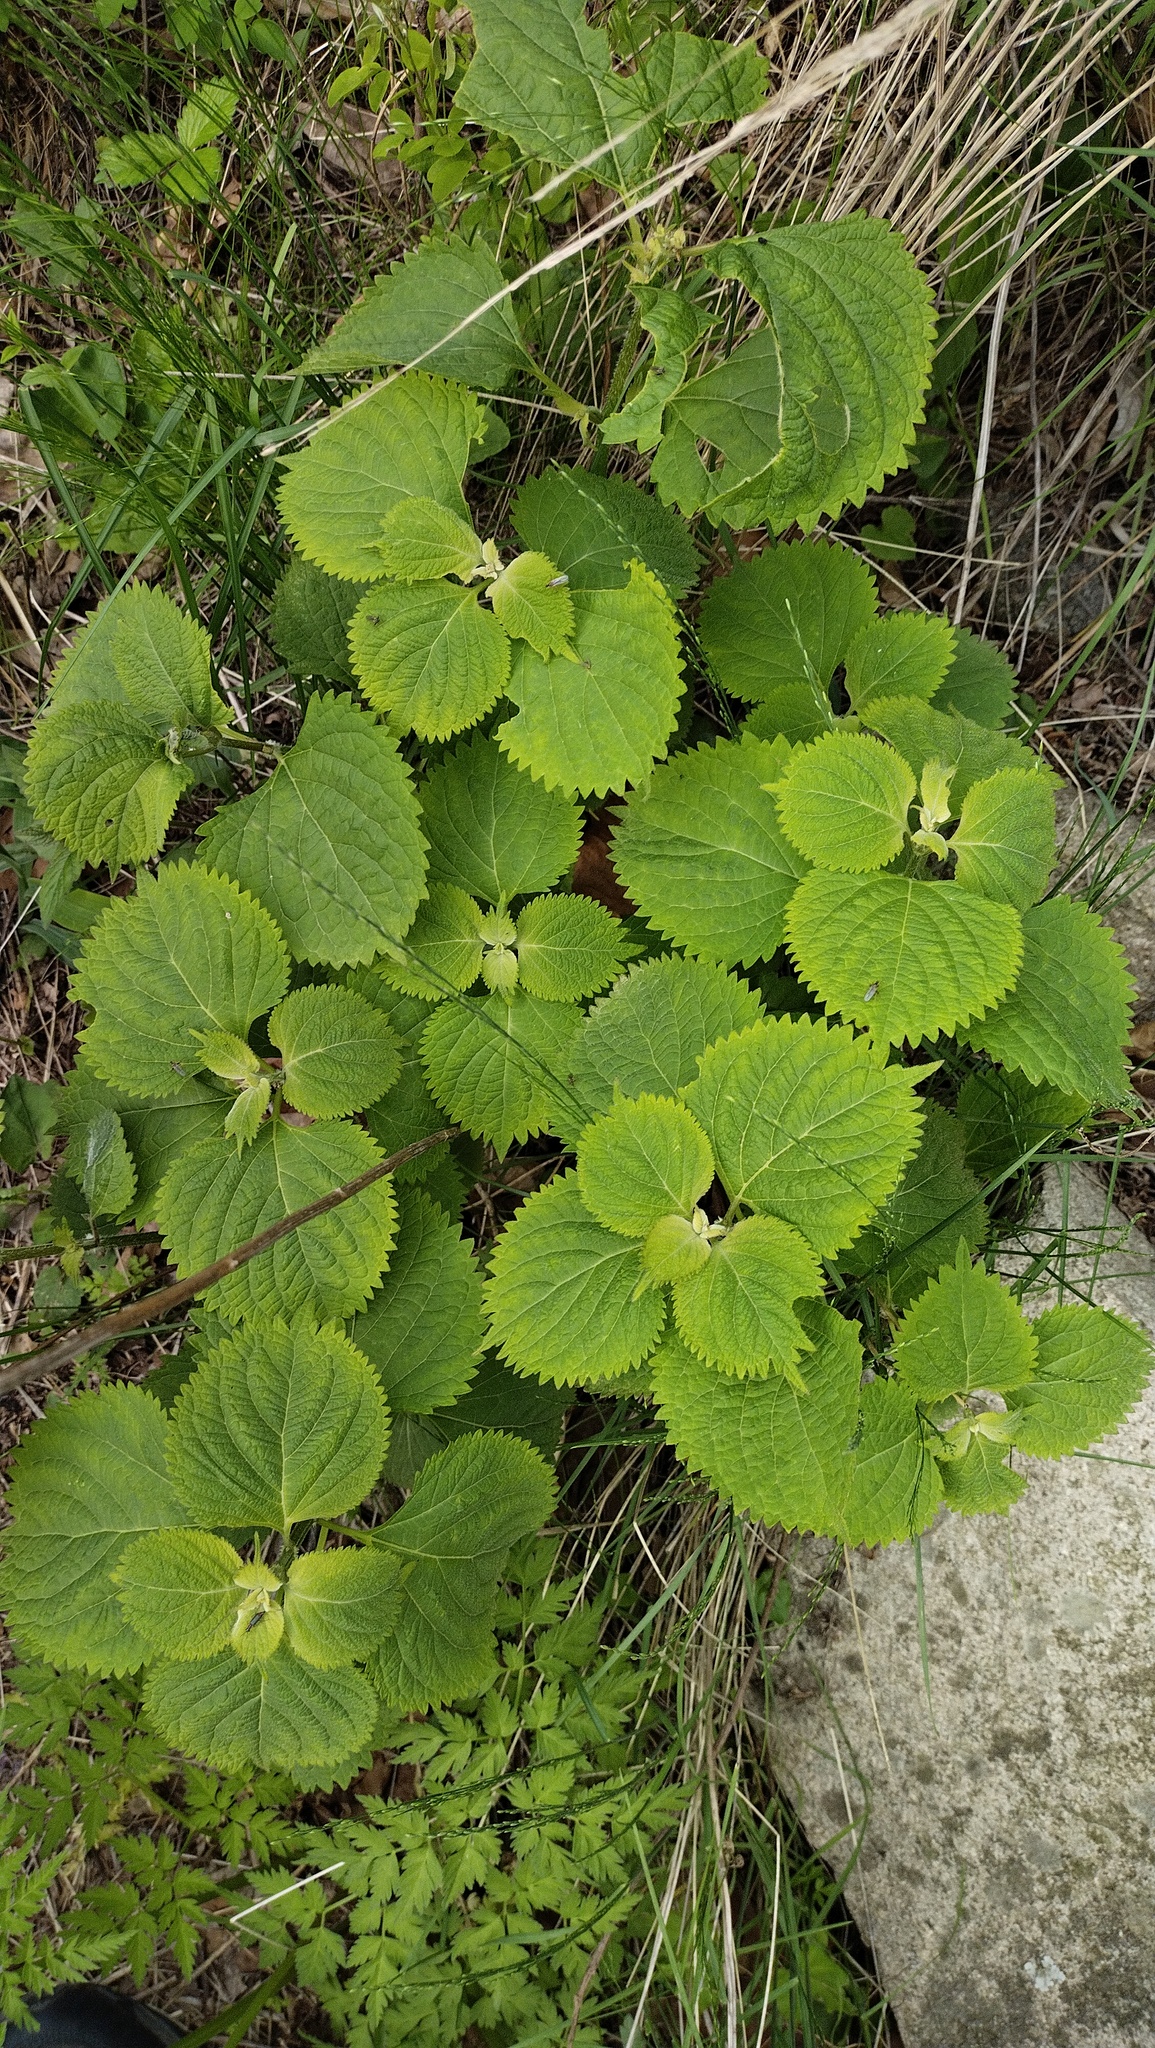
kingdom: Plantae
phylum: Tracheophyta
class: Magnoliopsida
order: Lamiales
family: Lamiaceae
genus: Isodon
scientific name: Isodon excisus
